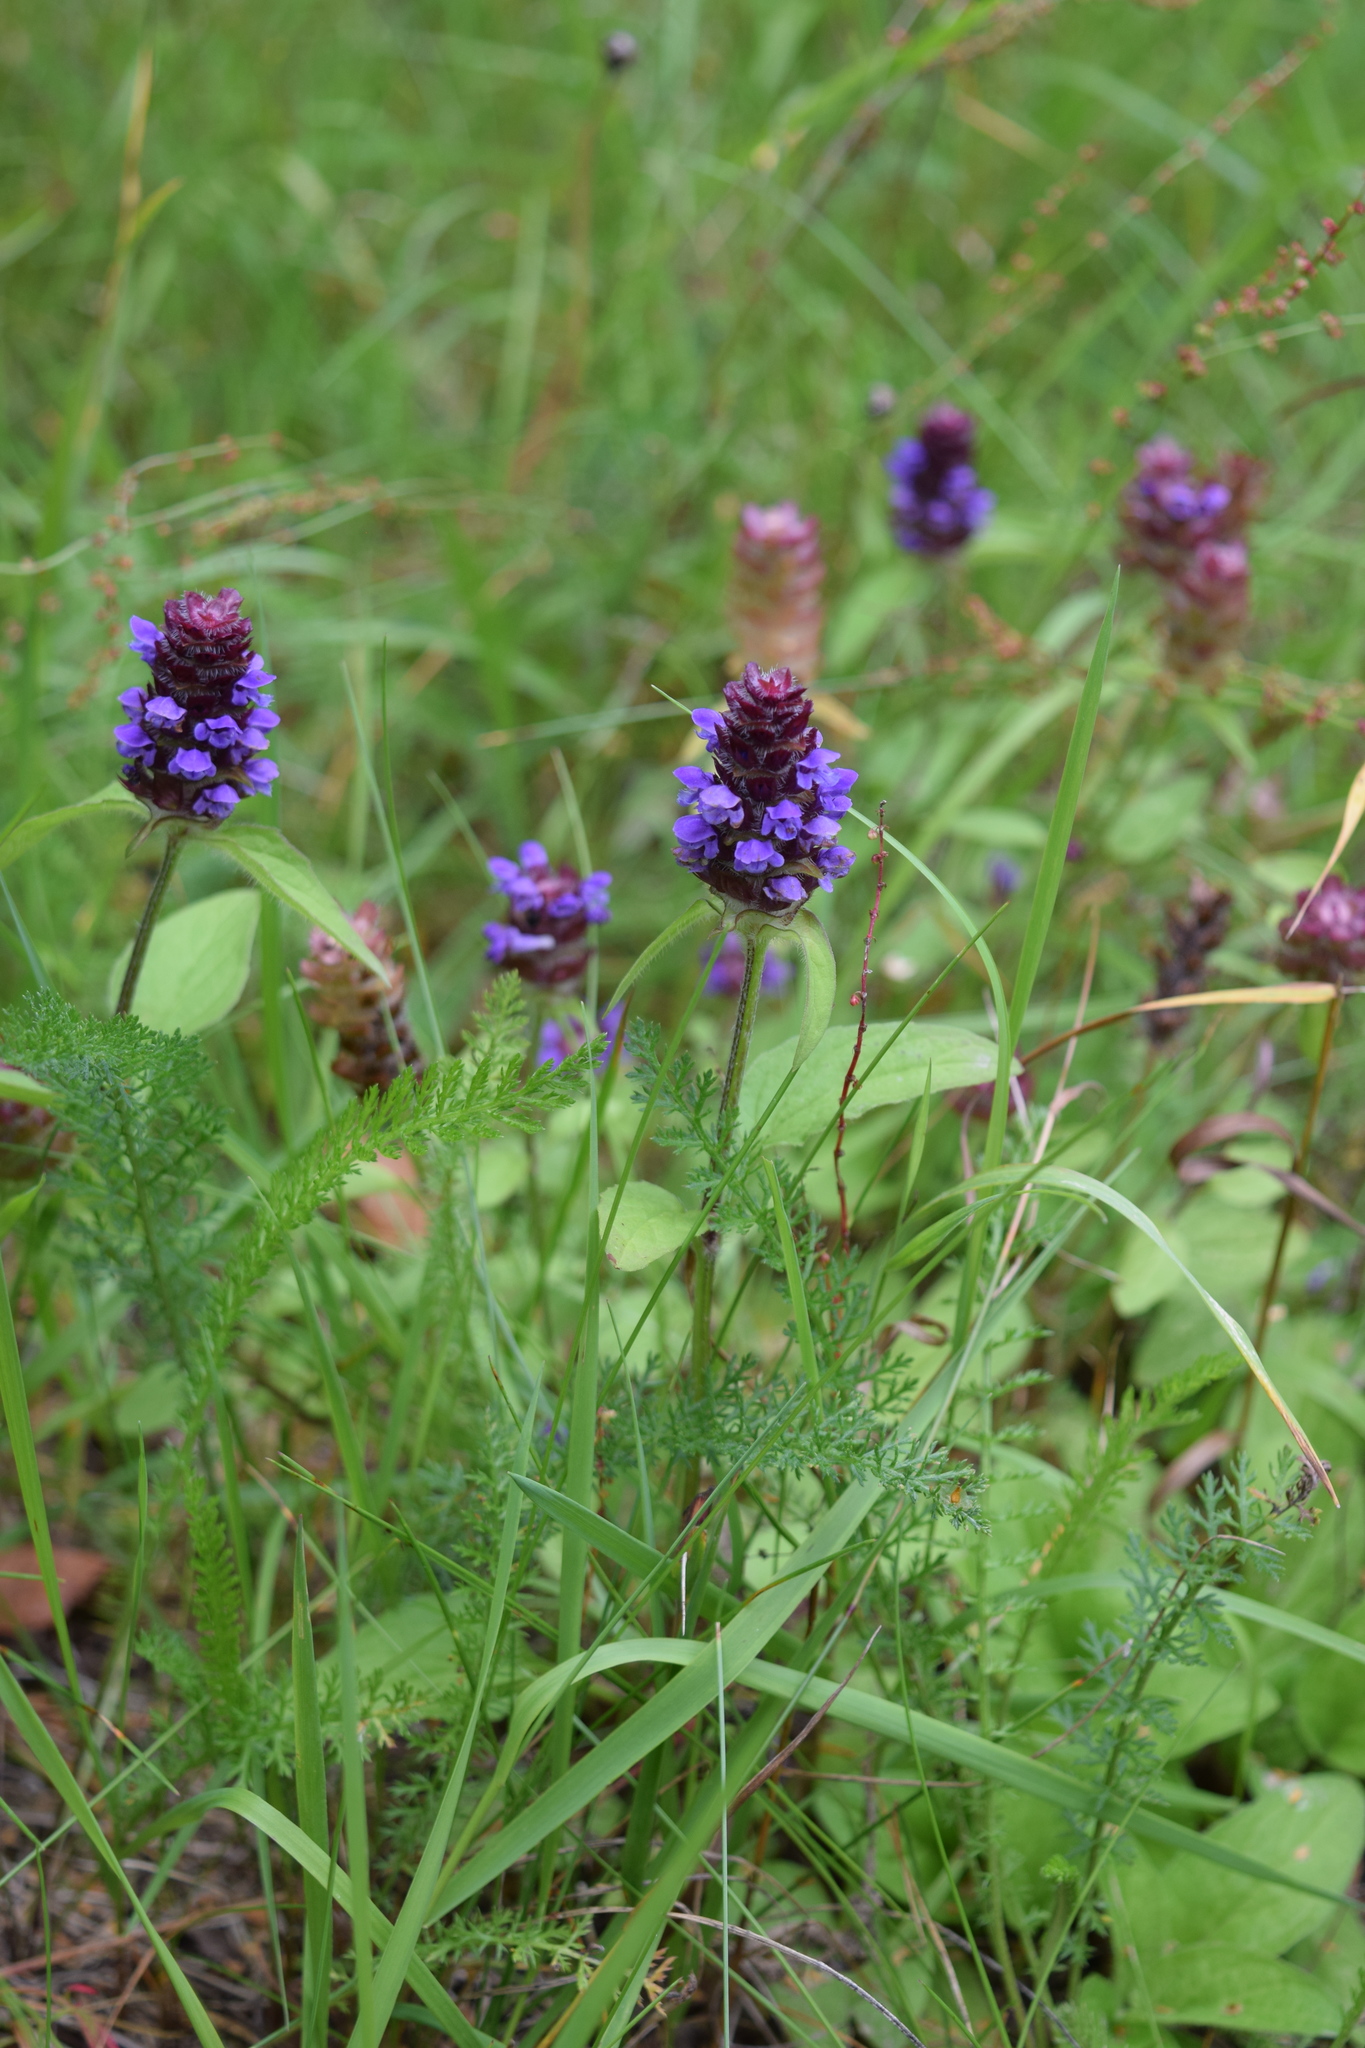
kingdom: Plantae
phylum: Tracheophyta
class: Magnoliopsida
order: Lamiales
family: Lamiaceae
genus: Prunella
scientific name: Prunella vulgaris
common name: Heal-all
